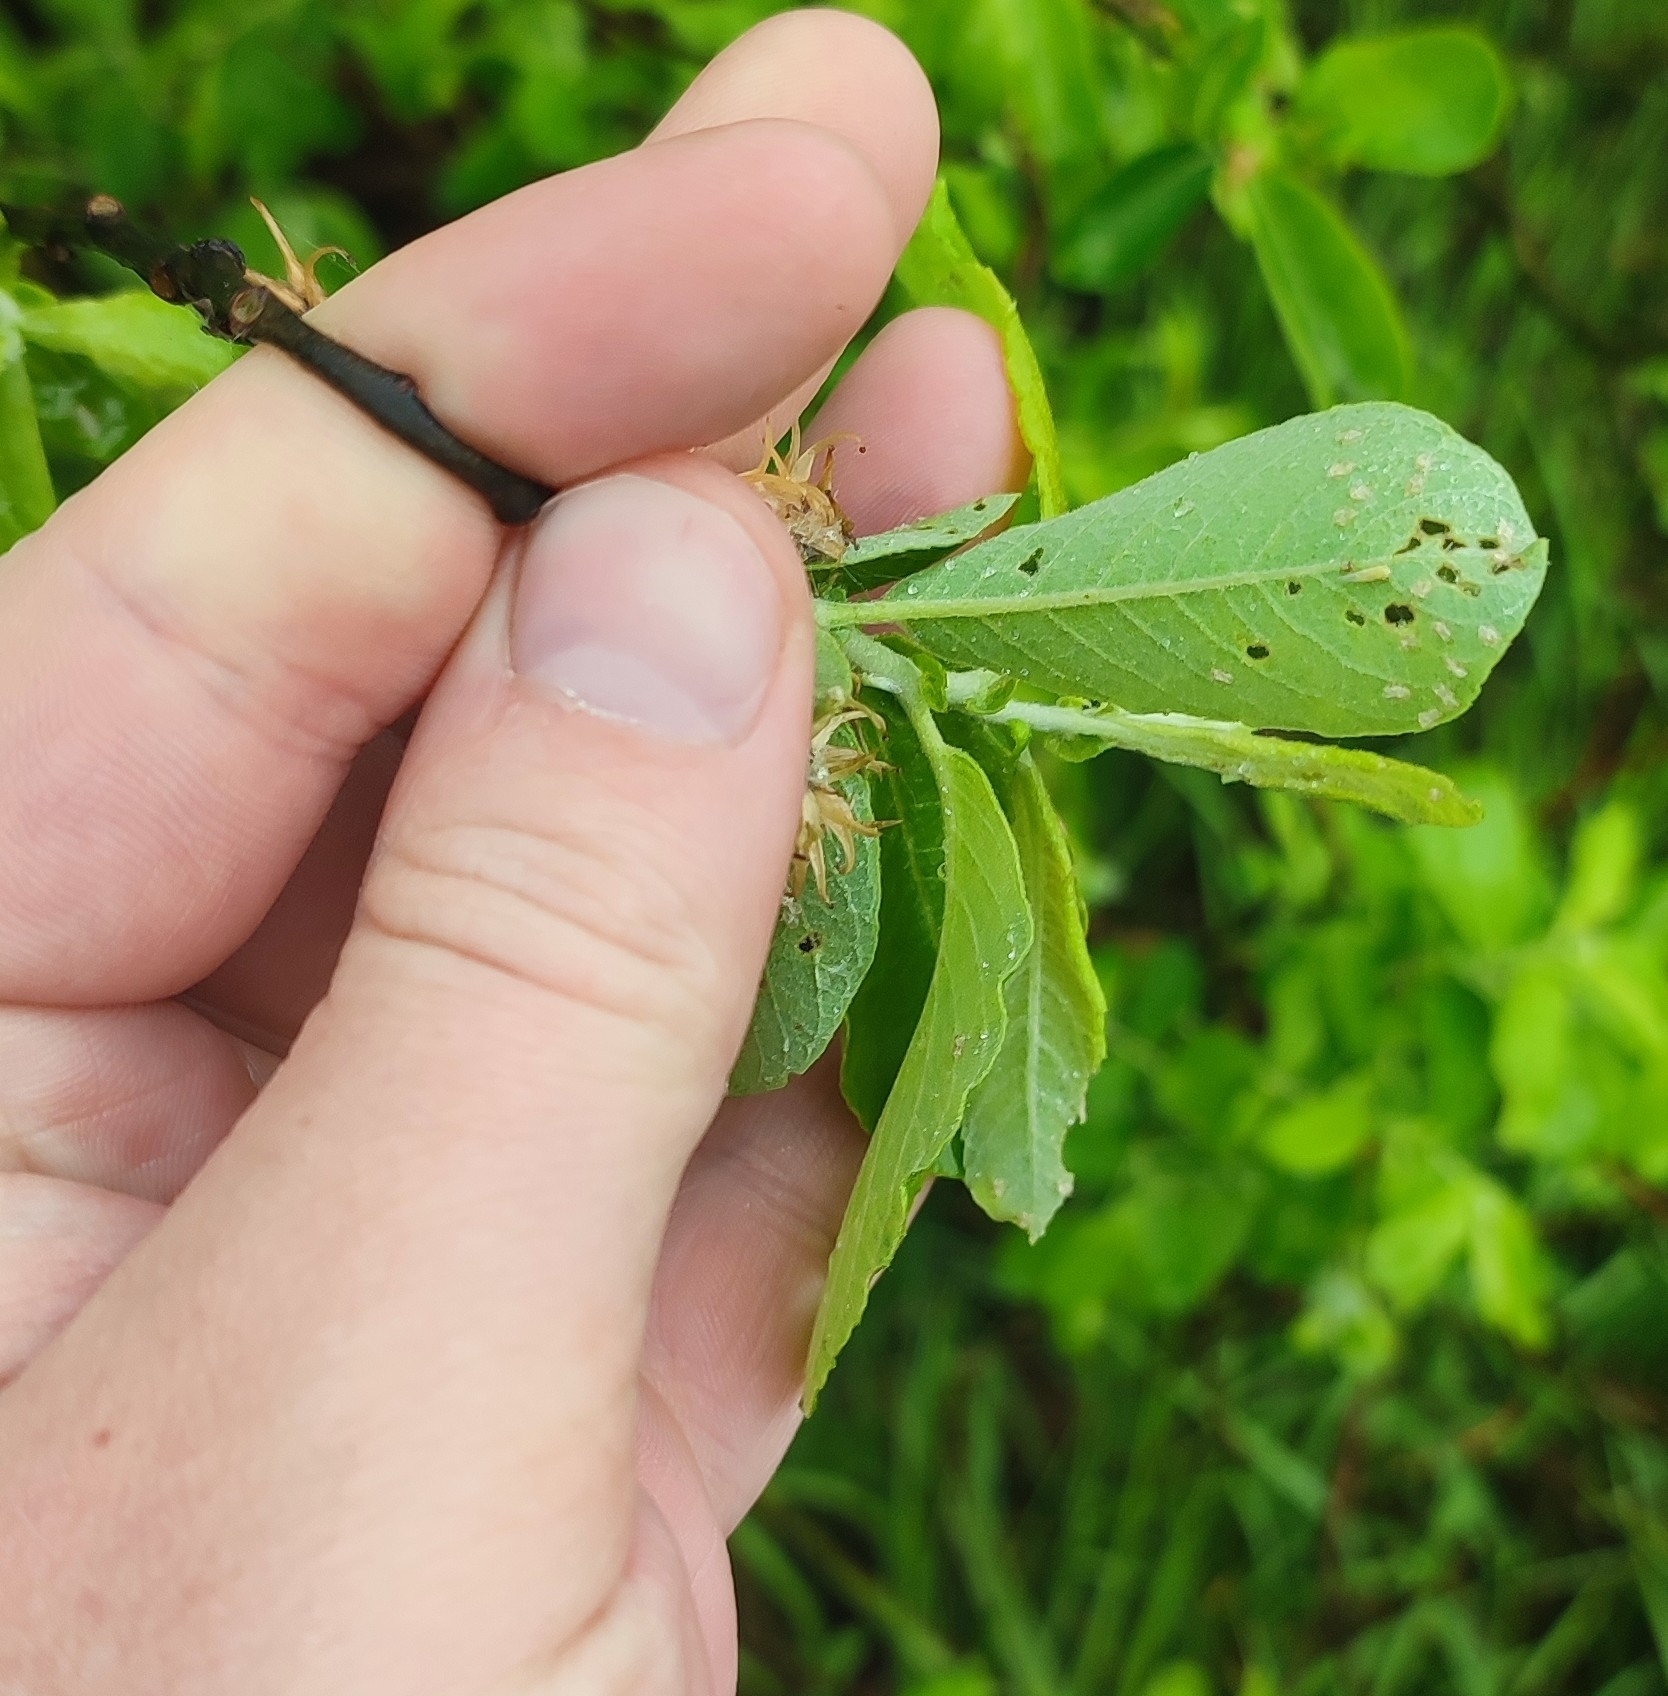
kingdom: Plantae
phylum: Tracheophyta
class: Magnoliopsida
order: Malpighiales
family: Salicaceae
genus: Salix
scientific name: Salix cinerea
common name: Common sallow
